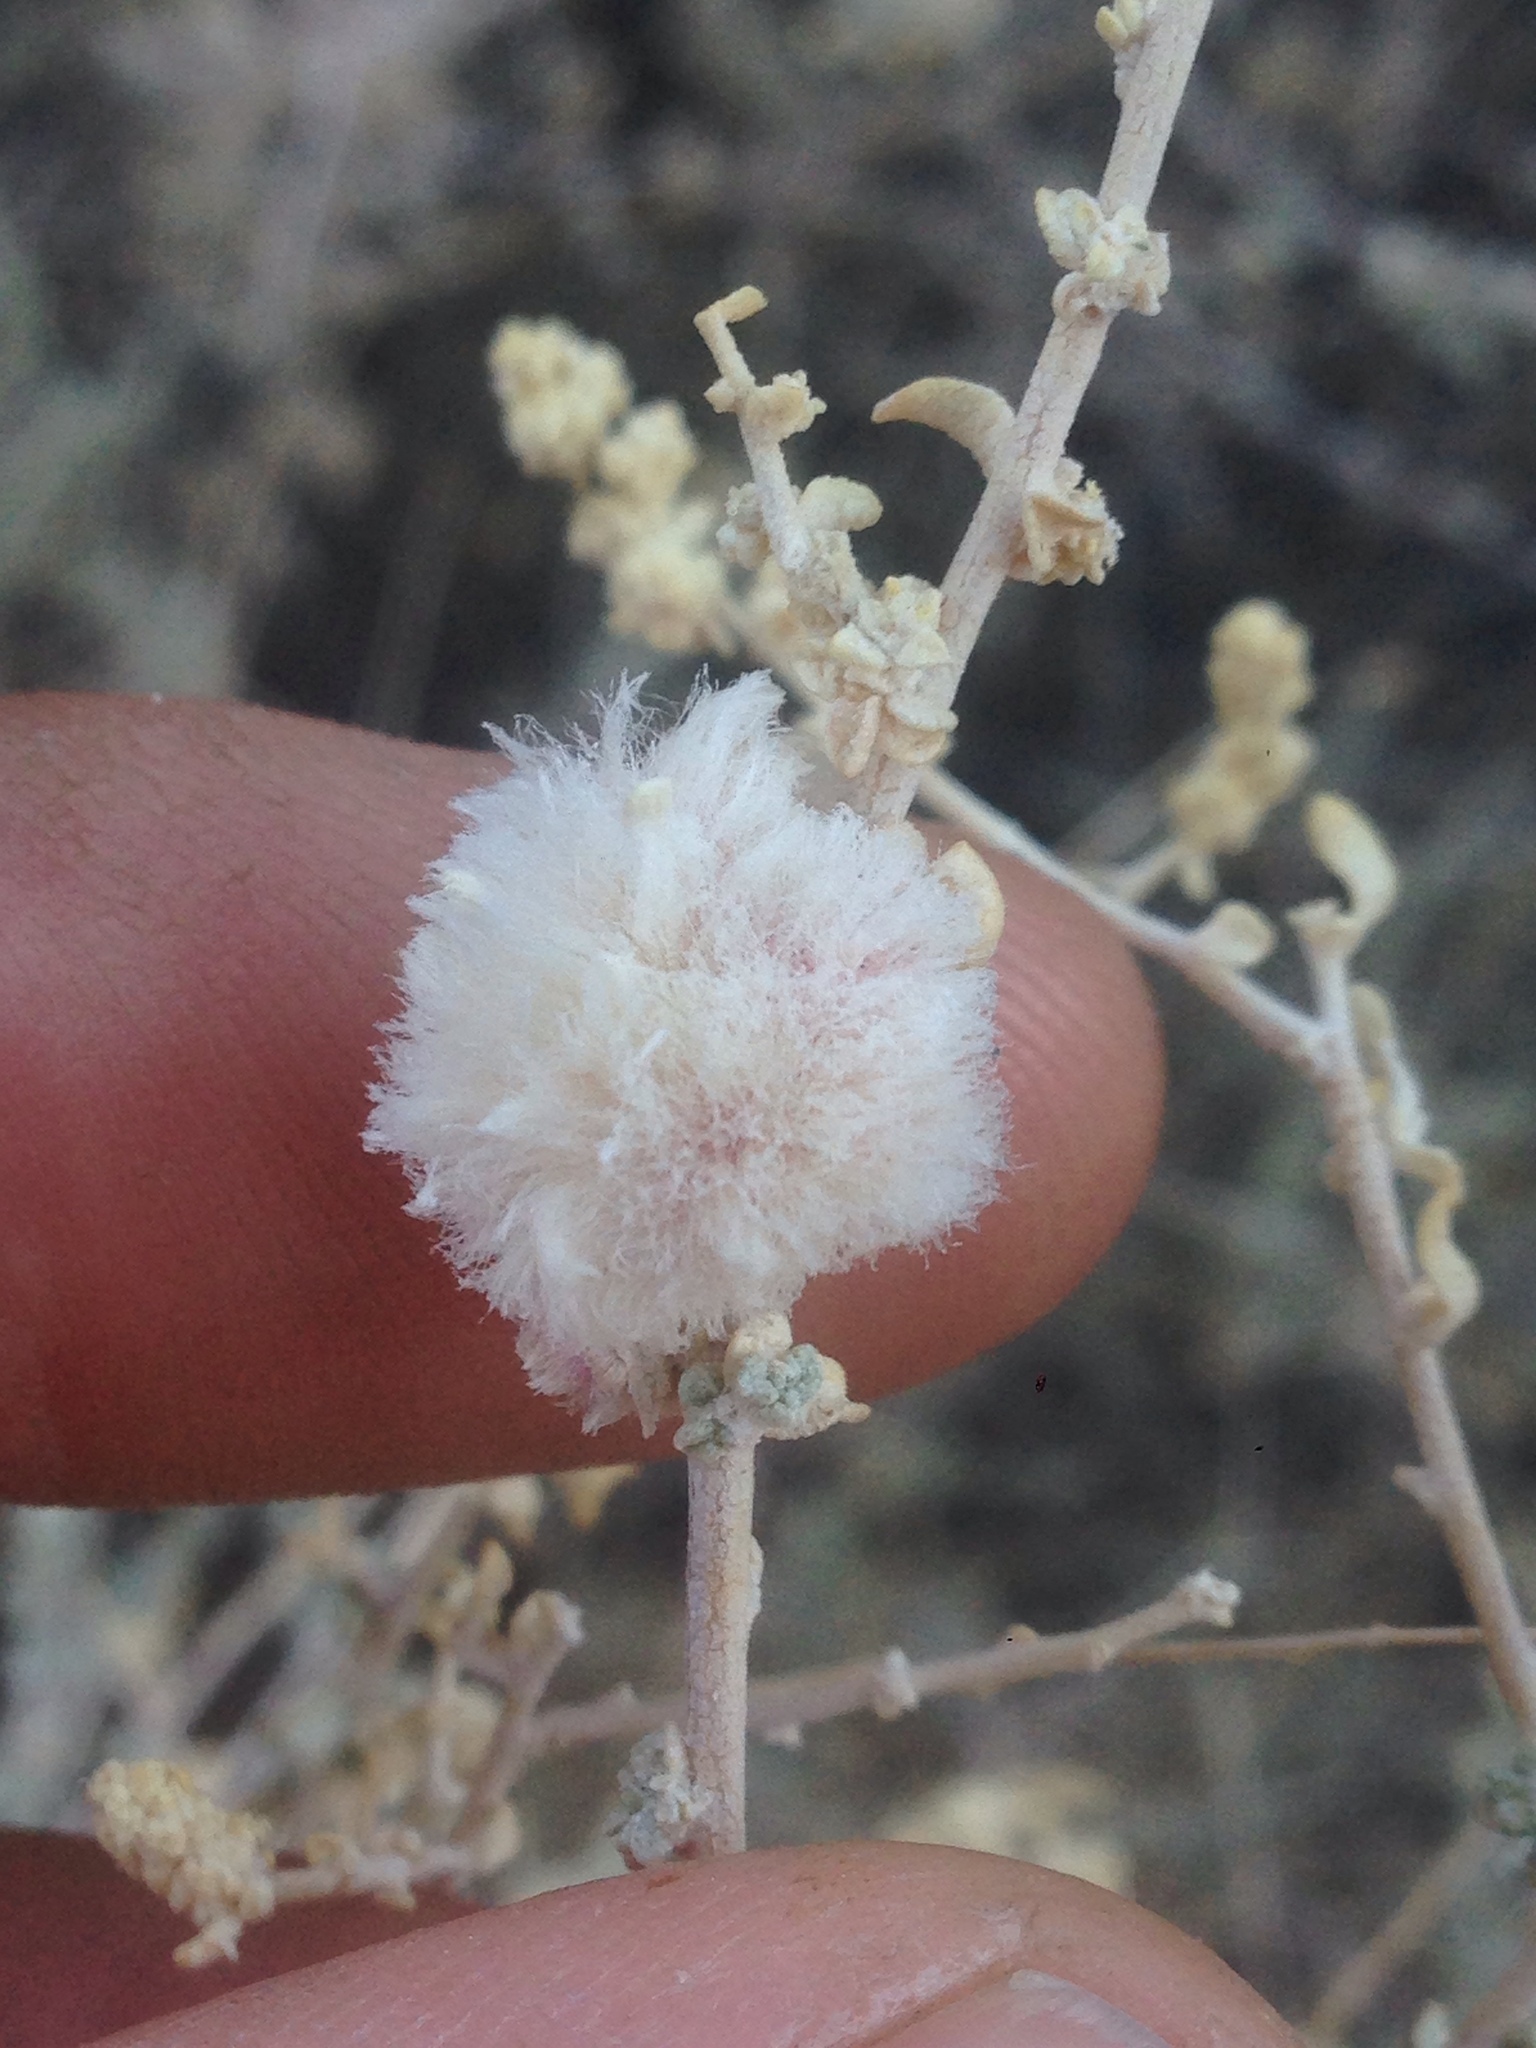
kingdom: Animalia
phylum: Arthropoda
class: Insecta
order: Diptera
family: Cecidomyiidae
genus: Asphondylia
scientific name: Asphondylia floccosa
